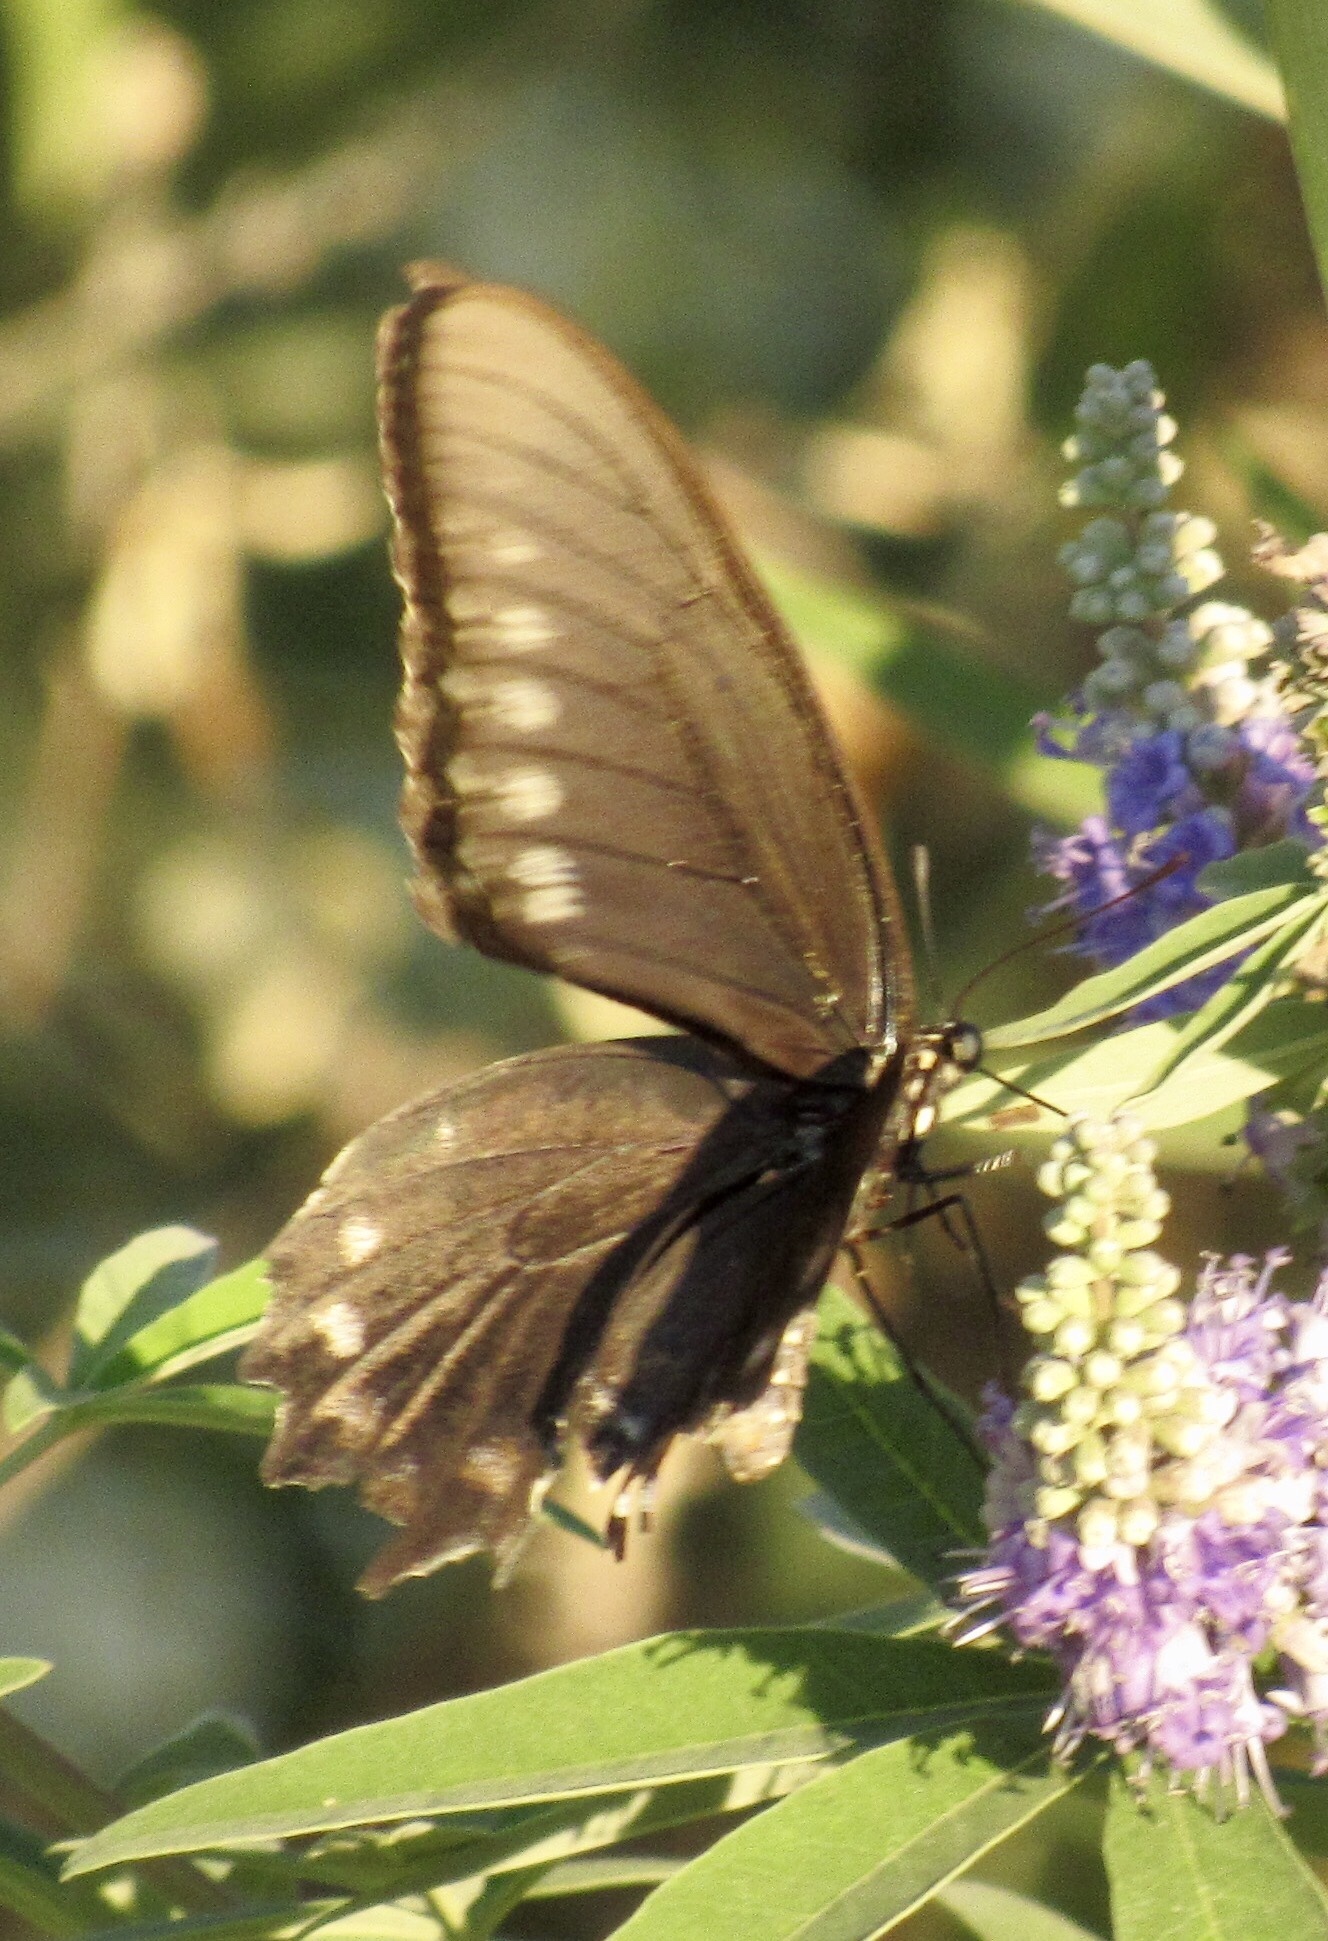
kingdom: Animalia
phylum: Arthropoda
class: Insecta
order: Lepidoptera
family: Papilionidae
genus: Battus
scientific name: Battus philenor
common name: Pipevine swallowtail
